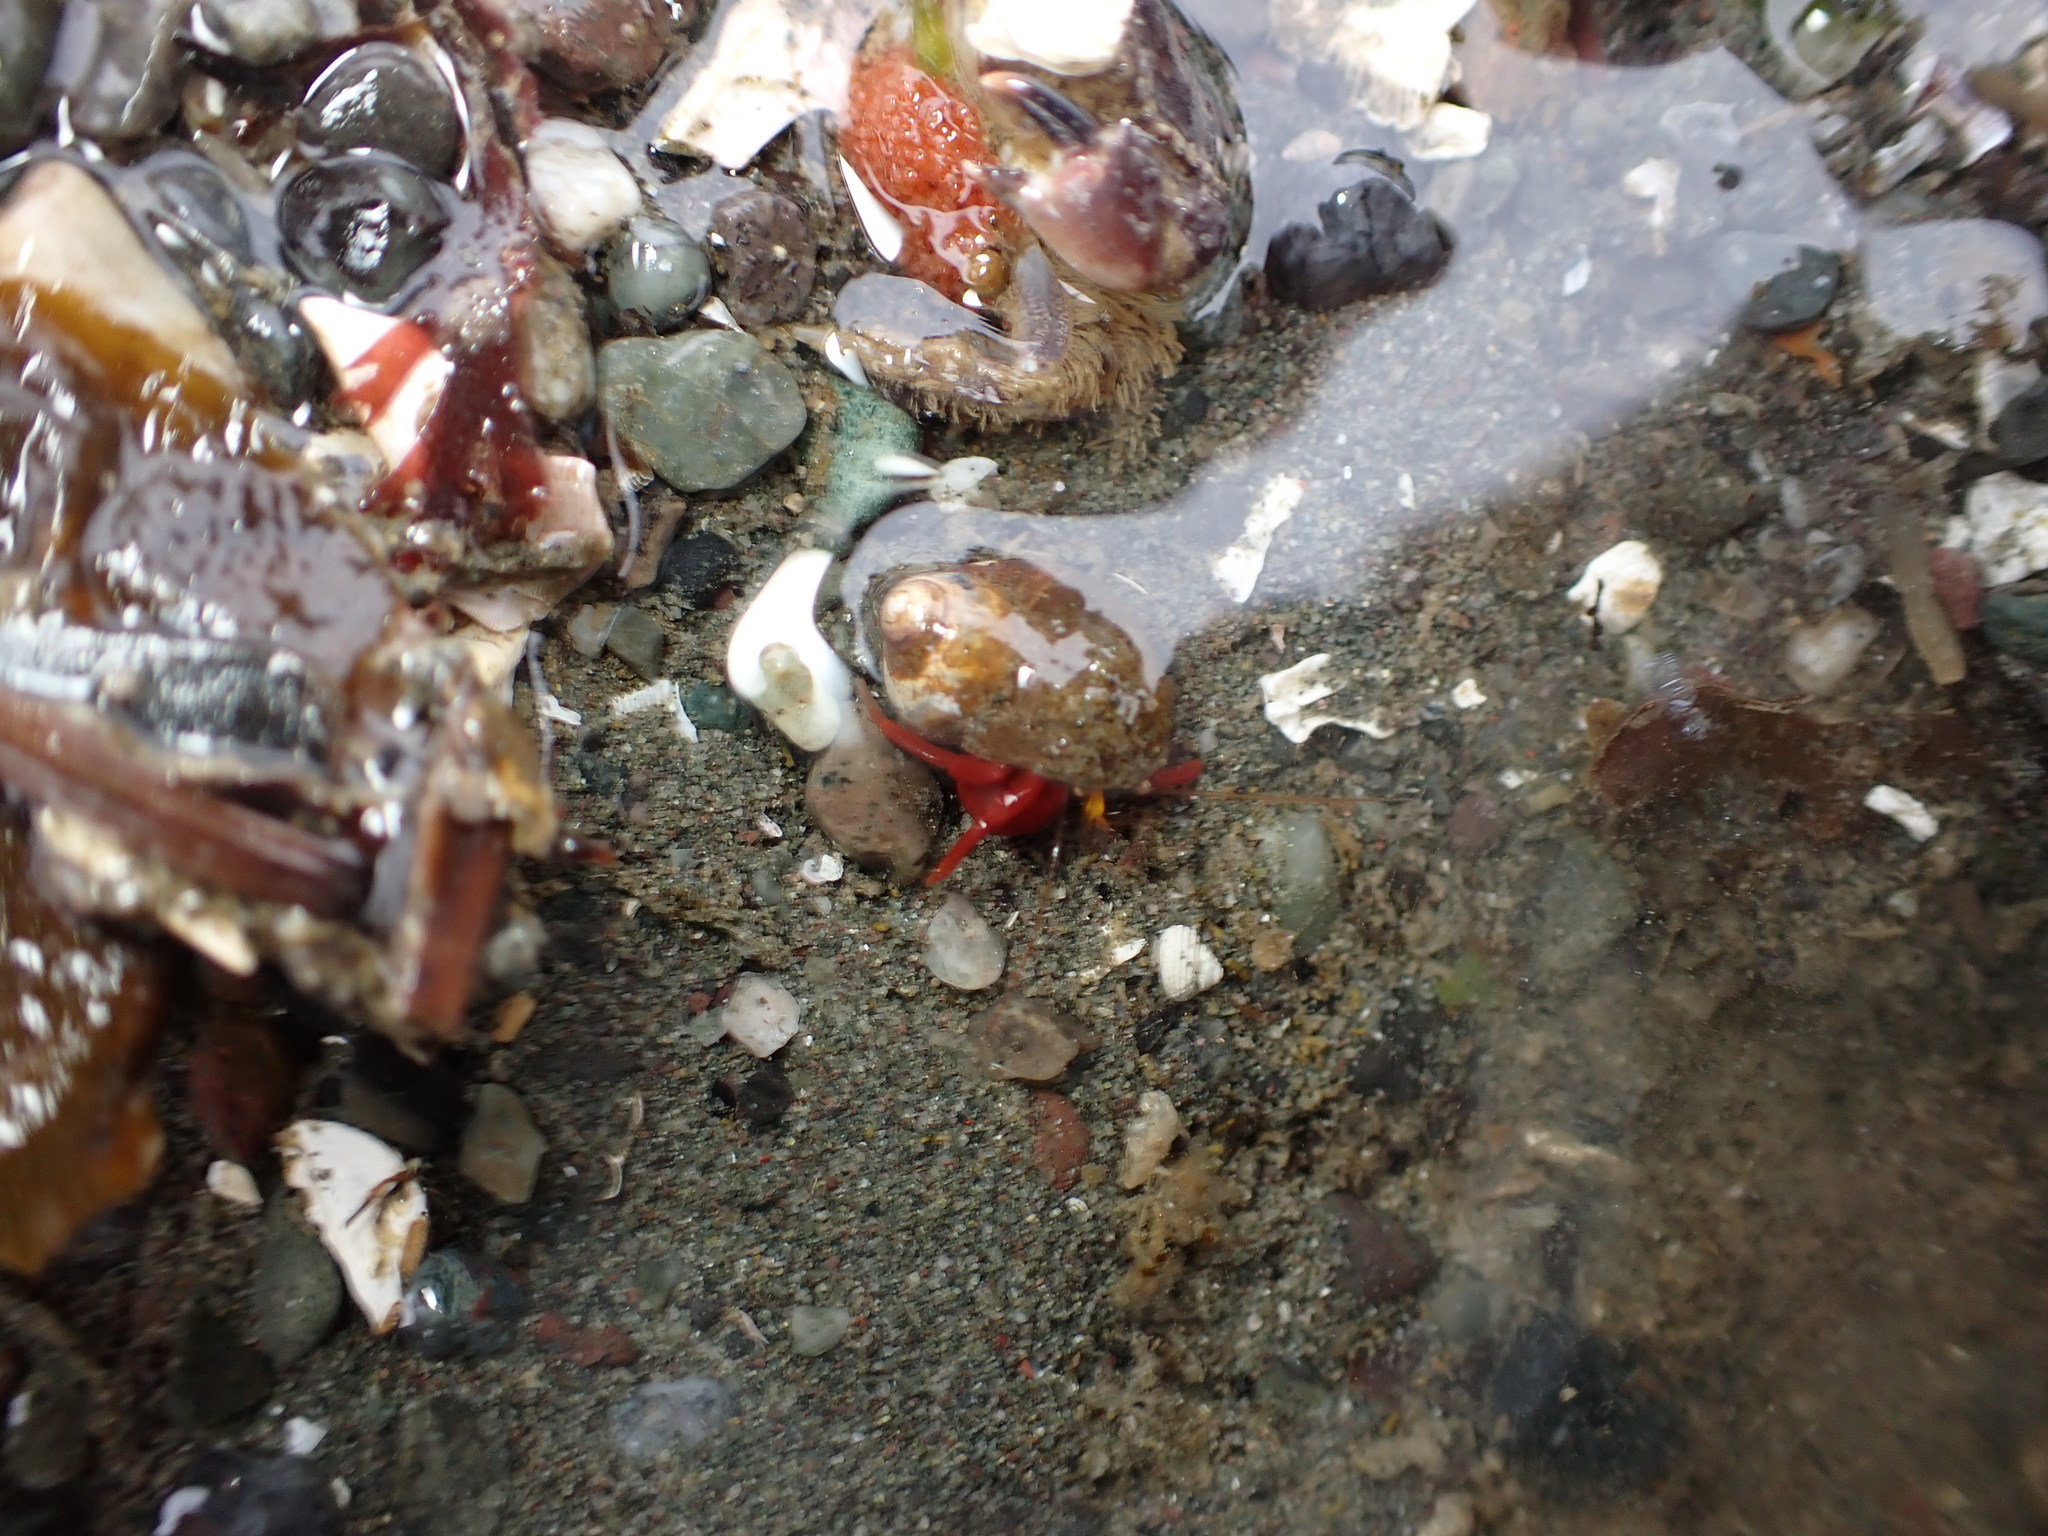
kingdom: Animalia
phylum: Arthropoda
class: Malacostraca
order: Decapoda
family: Paguridae
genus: Elassochirus
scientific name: Elassochirus gilli
